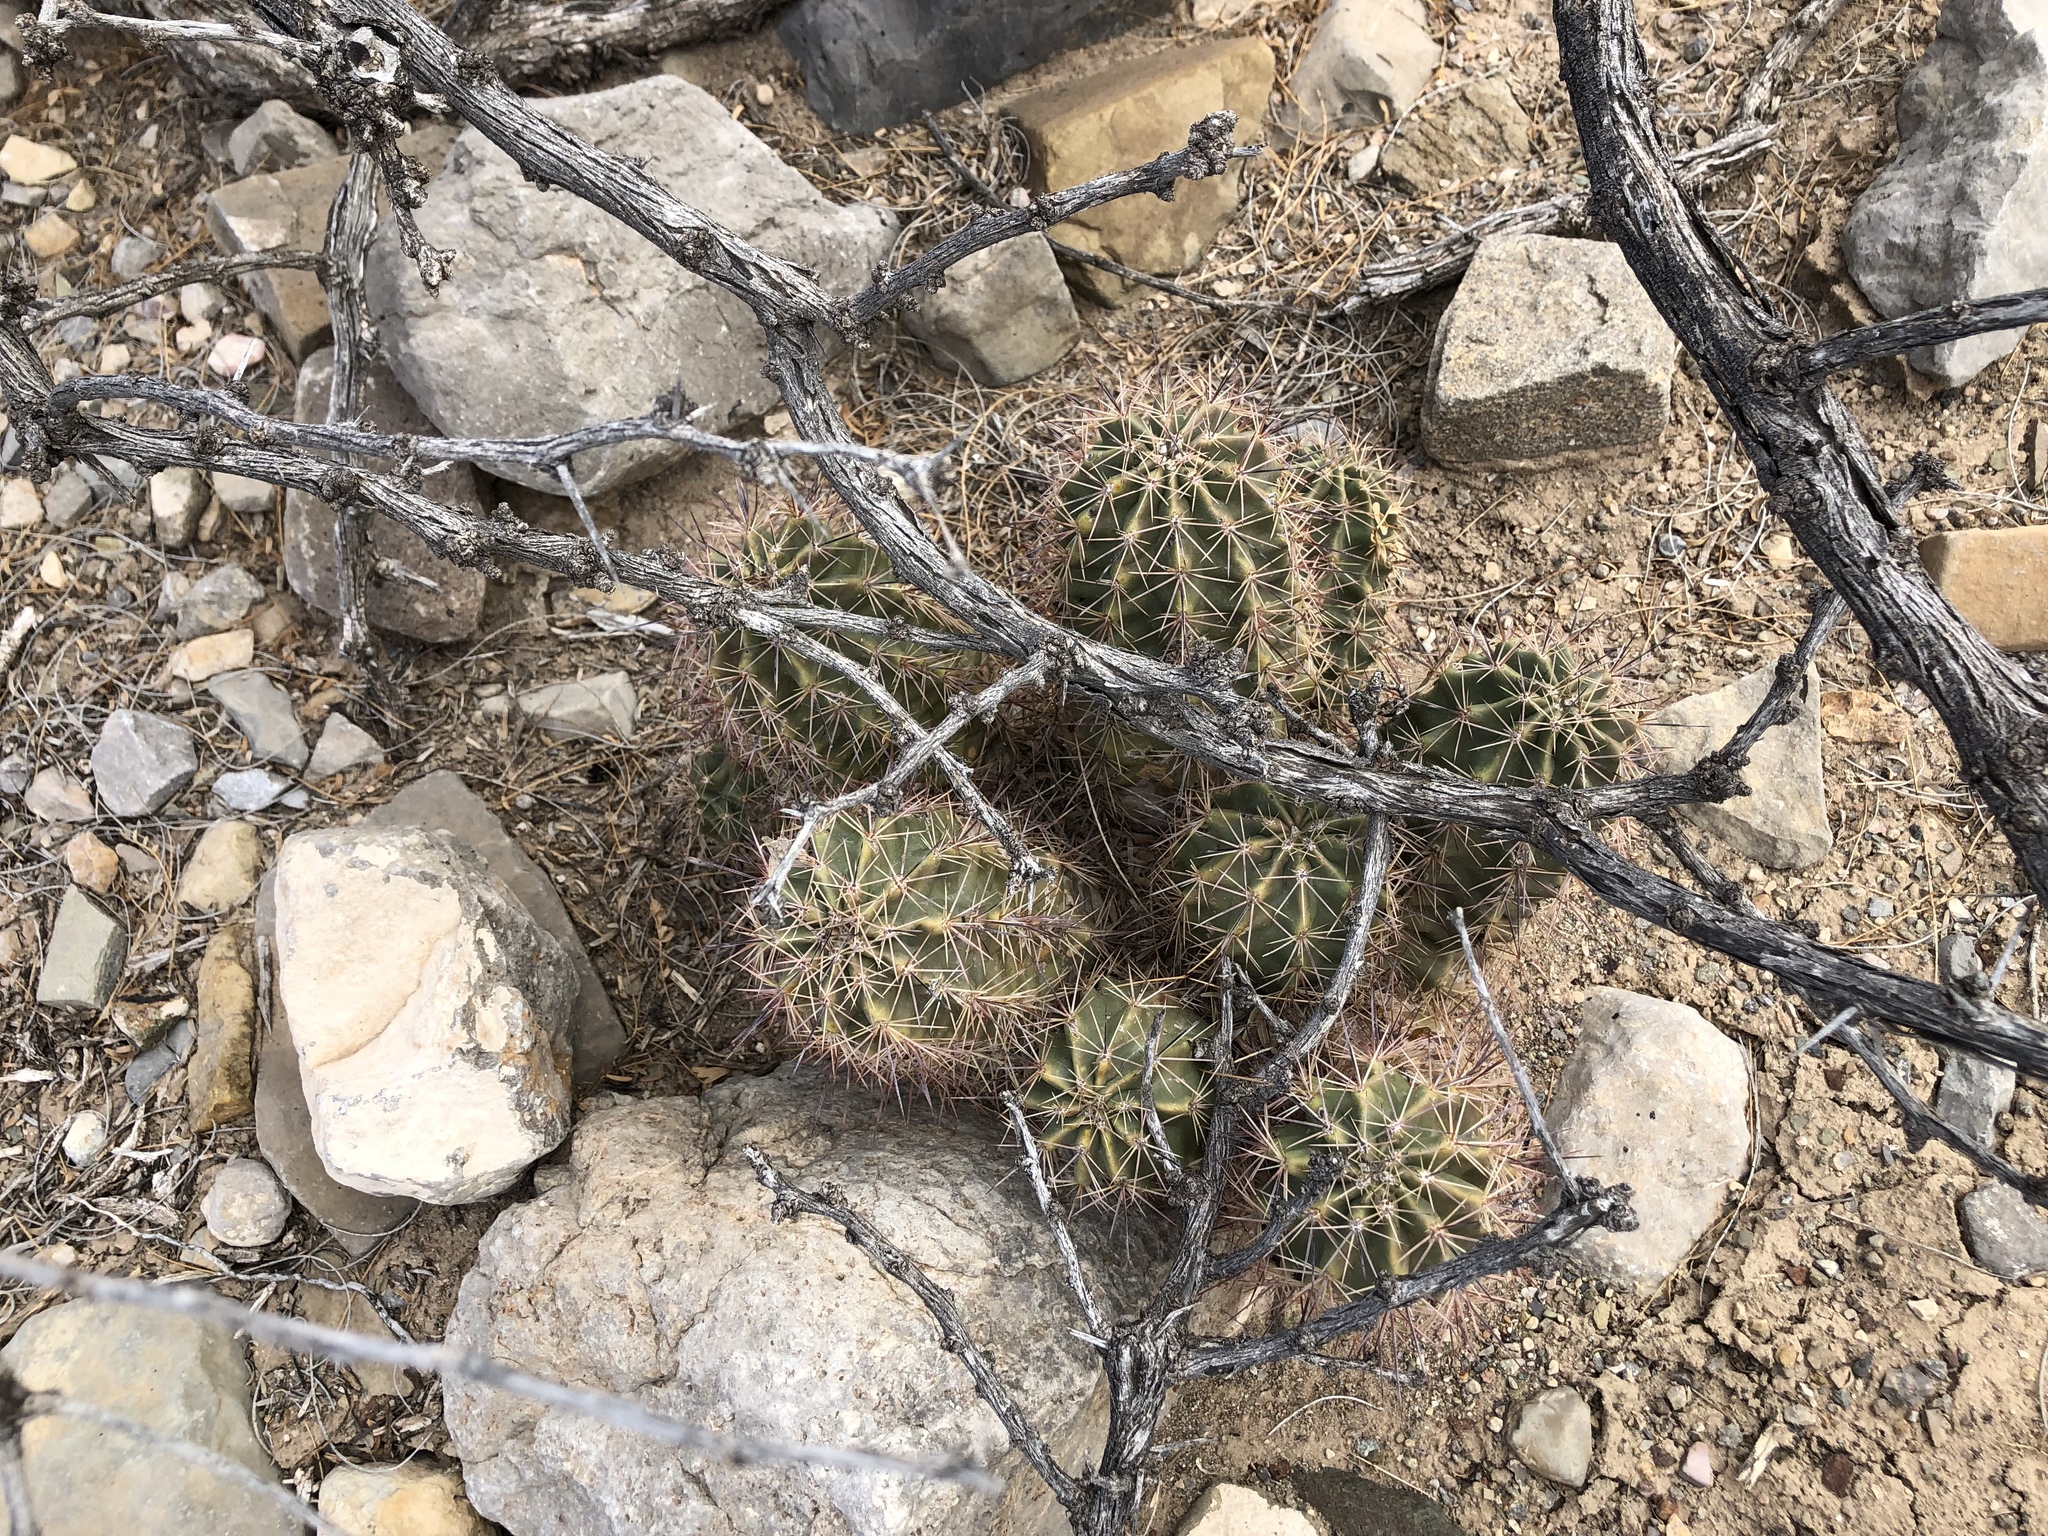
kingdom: Plantae
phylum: Tracheophyta
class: Magnoliopsida
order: Caryophyllales
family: Cactaceae
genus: Echinocereus
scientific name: Echinocereus coccineus
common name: Scarlet hedgehog cactus
